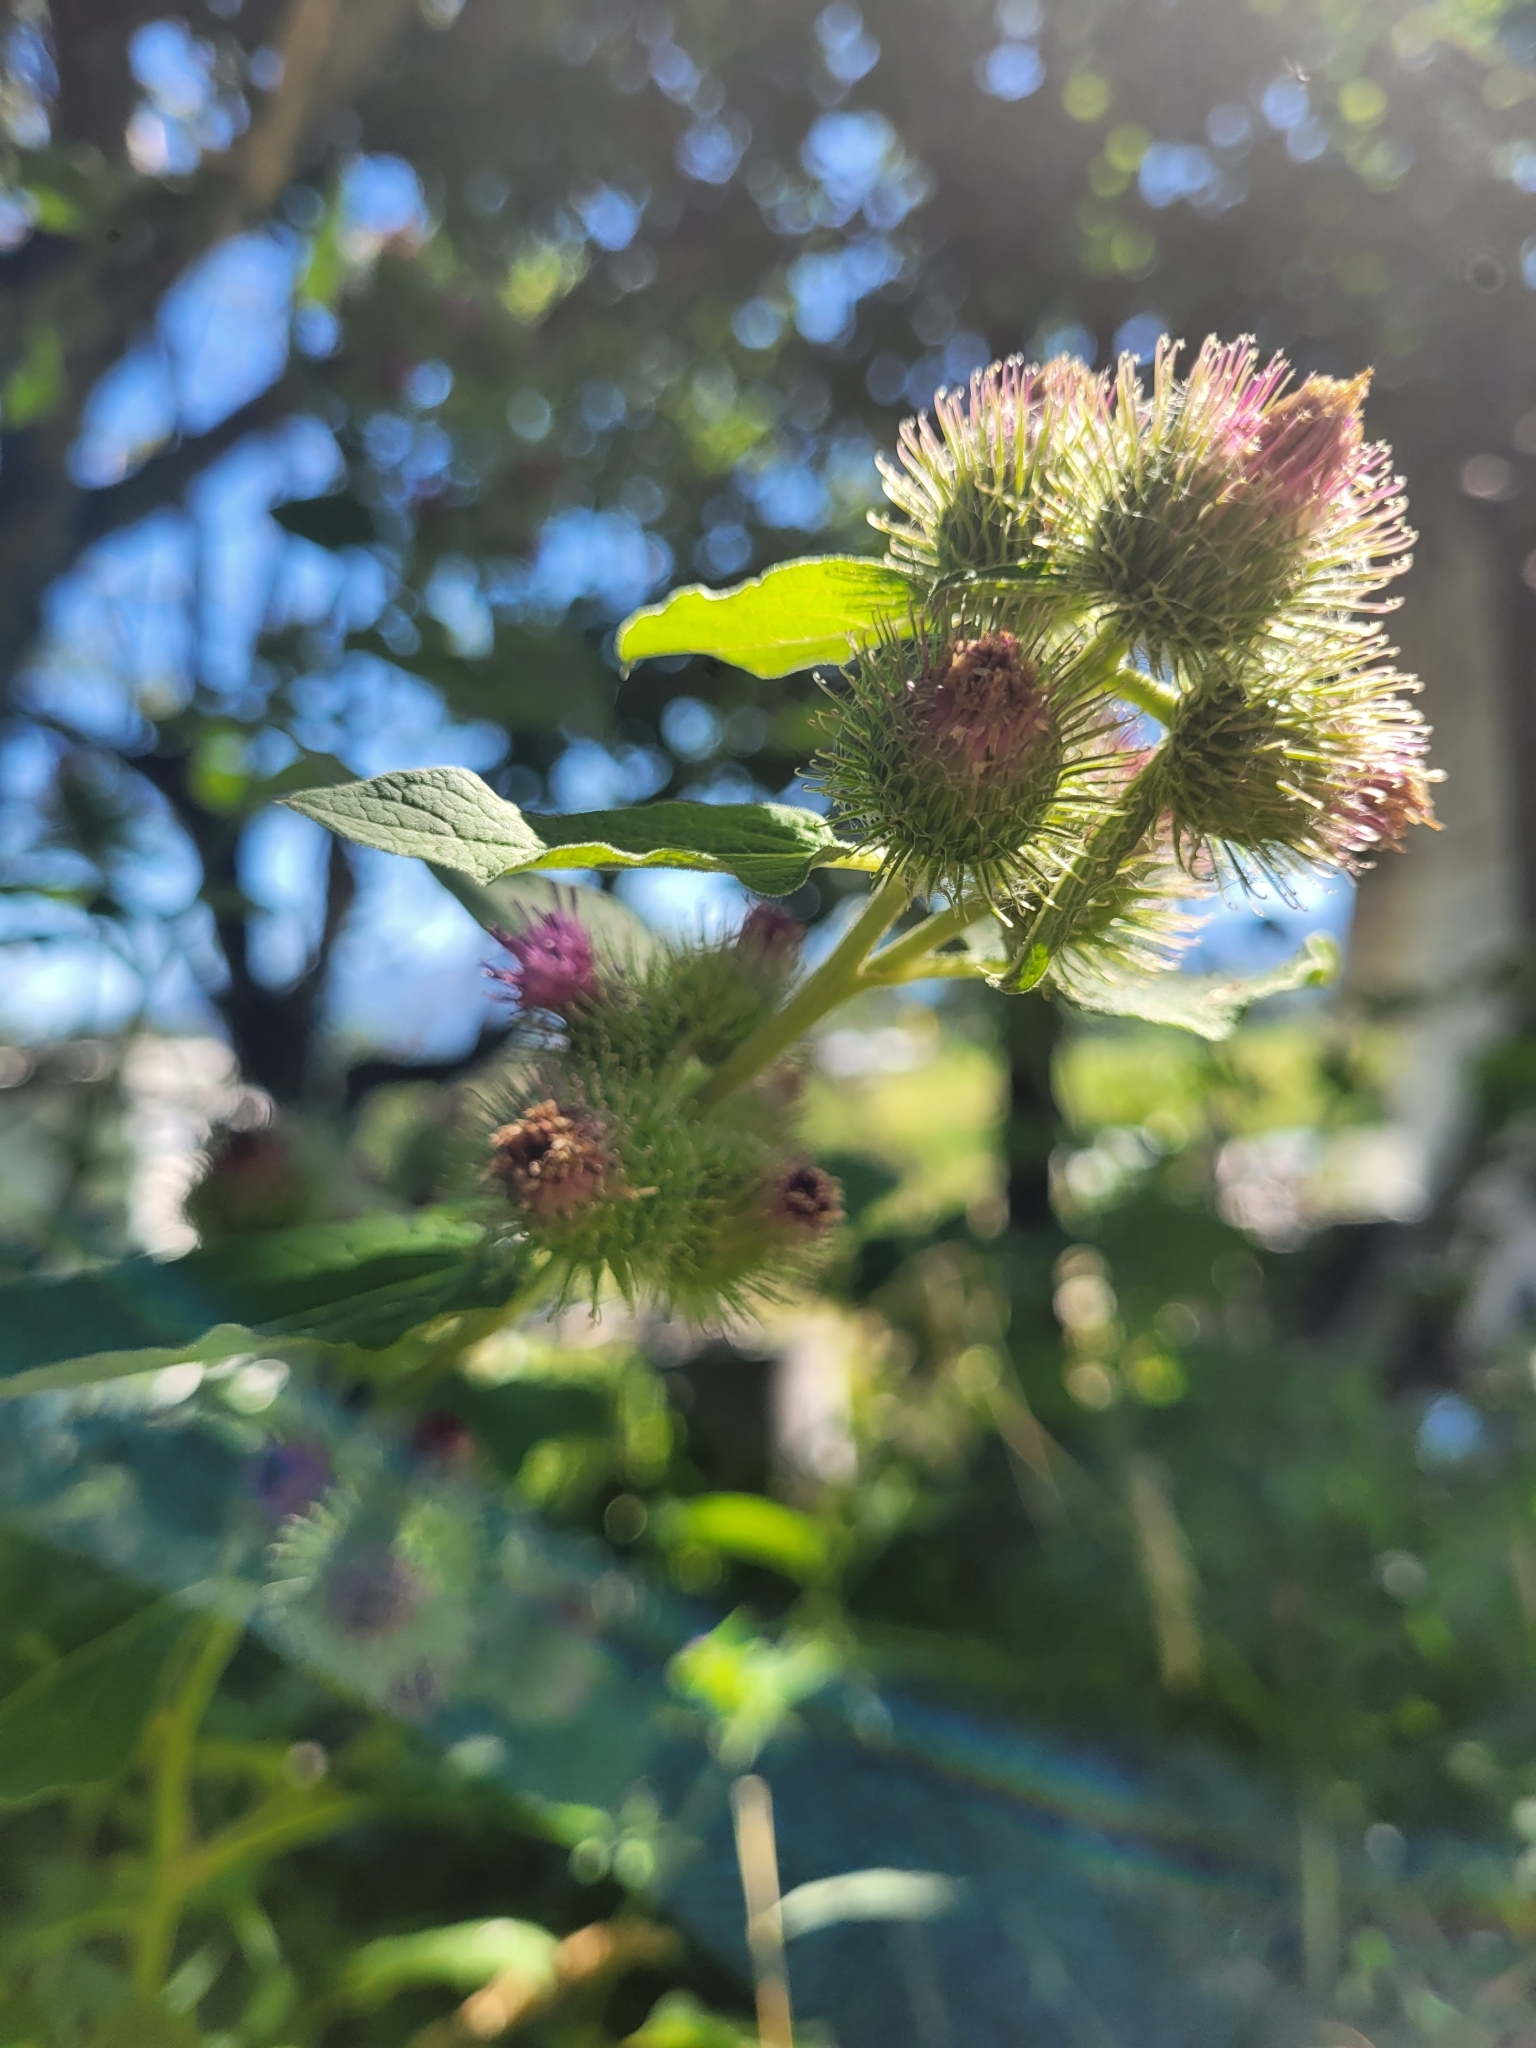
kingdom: Plantae
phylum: Tracheophyta
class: Magnoliopsida
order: Asterales
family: Asteraceae
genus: Arctium
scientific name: Arctium lappa
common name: Greater burdock
